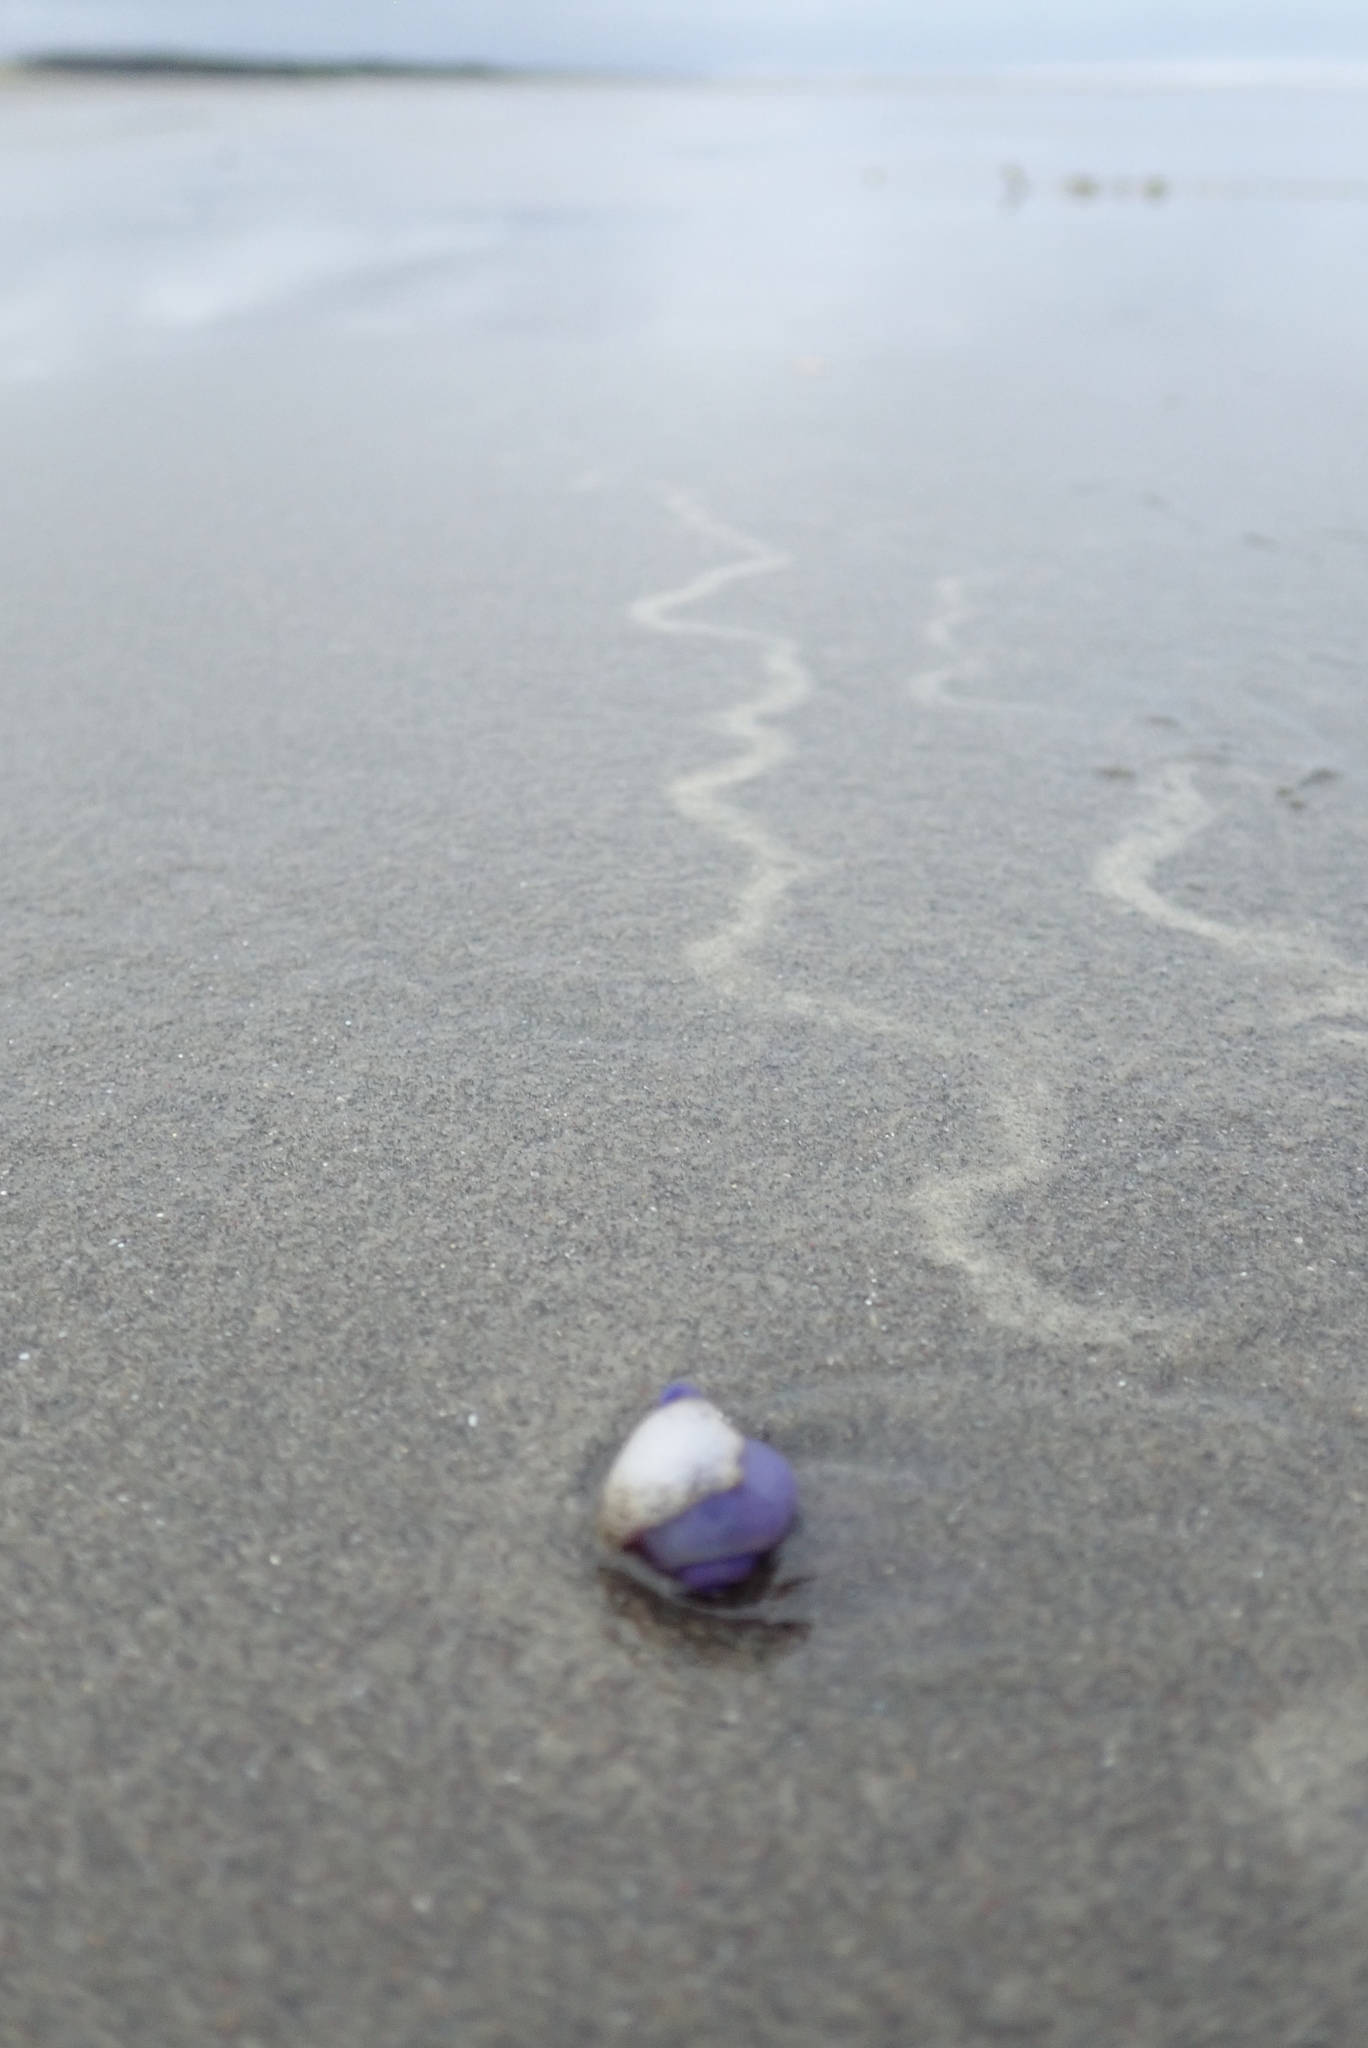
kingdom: Animalia
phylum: Mollusca
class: Gastropoda
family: Epitoniidae
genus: Janthina
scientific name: Janthina exigua
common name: Dwarf janthina
